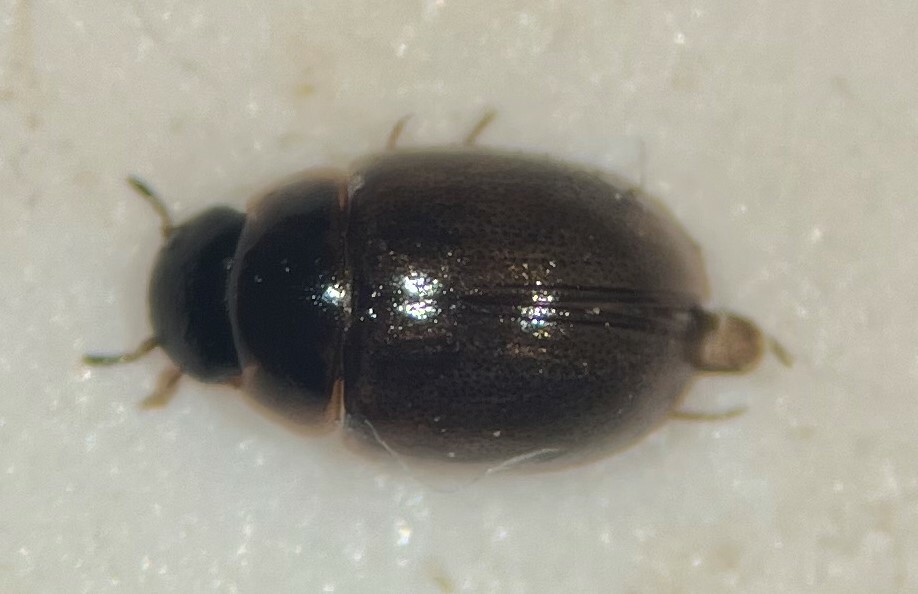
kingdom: Animalia
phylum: Arthropoda
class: Insecta
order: Coleoptera
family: Hydrophilidae
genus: Crenitis
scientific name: Crenitis monticola
